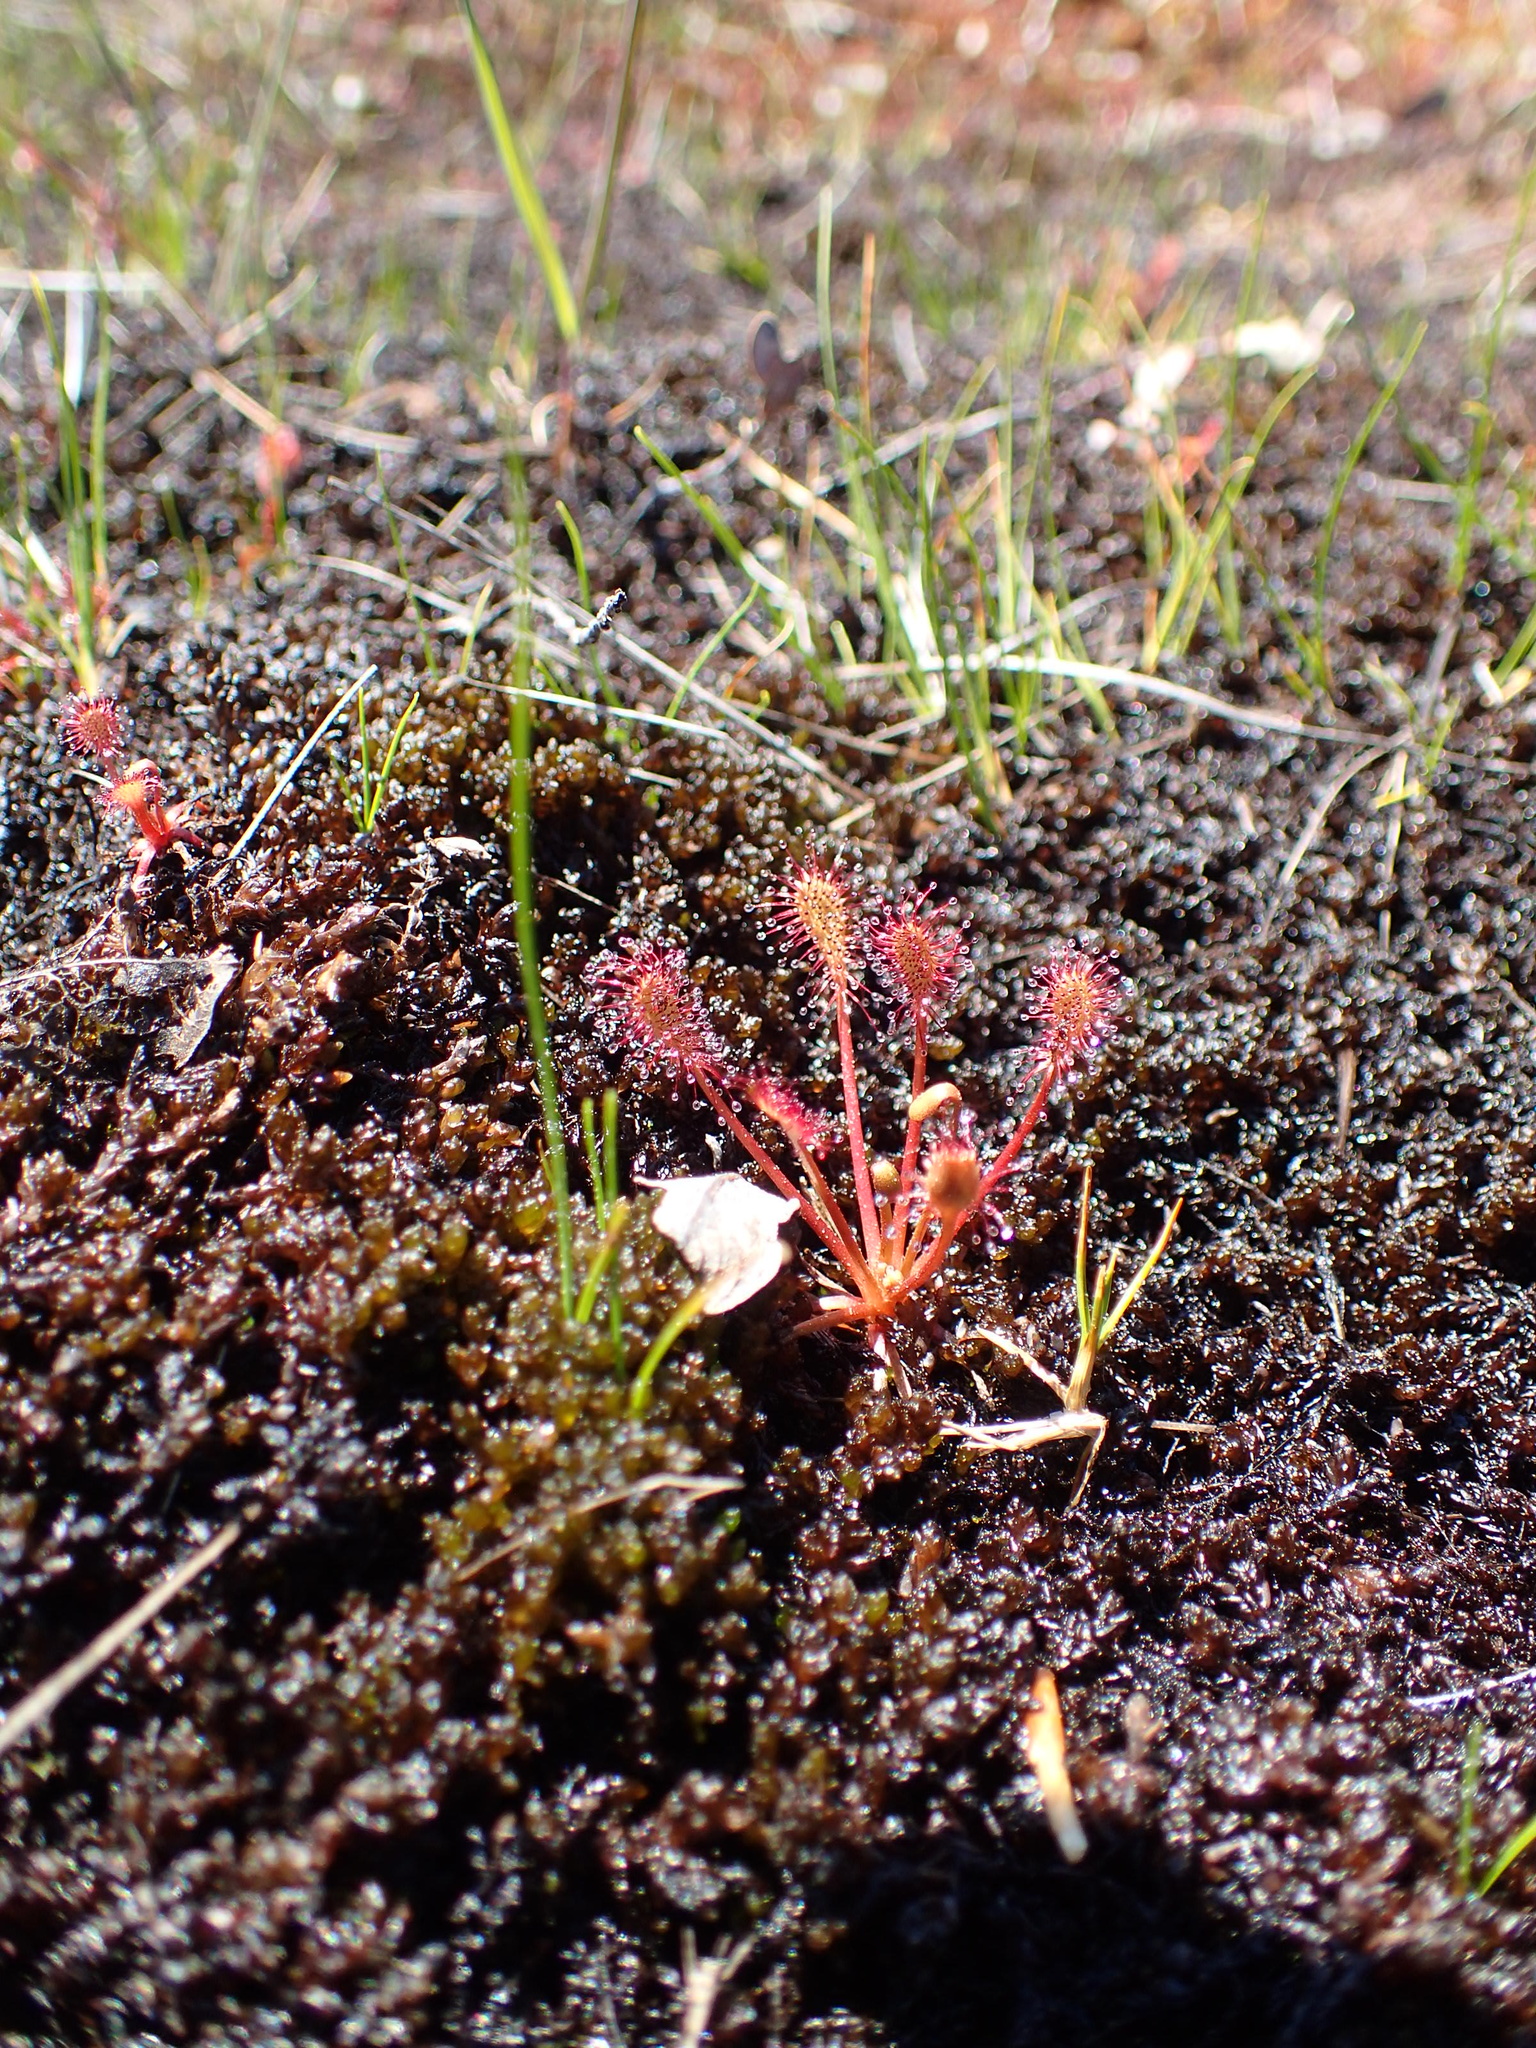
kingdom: Plantae
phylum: Tracheophyta
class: Magnoliopsida
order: Caryophyllales
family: Droseraceae
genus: Drosera
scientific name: Drosera intermedia
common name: Oblong-leaved sundew
